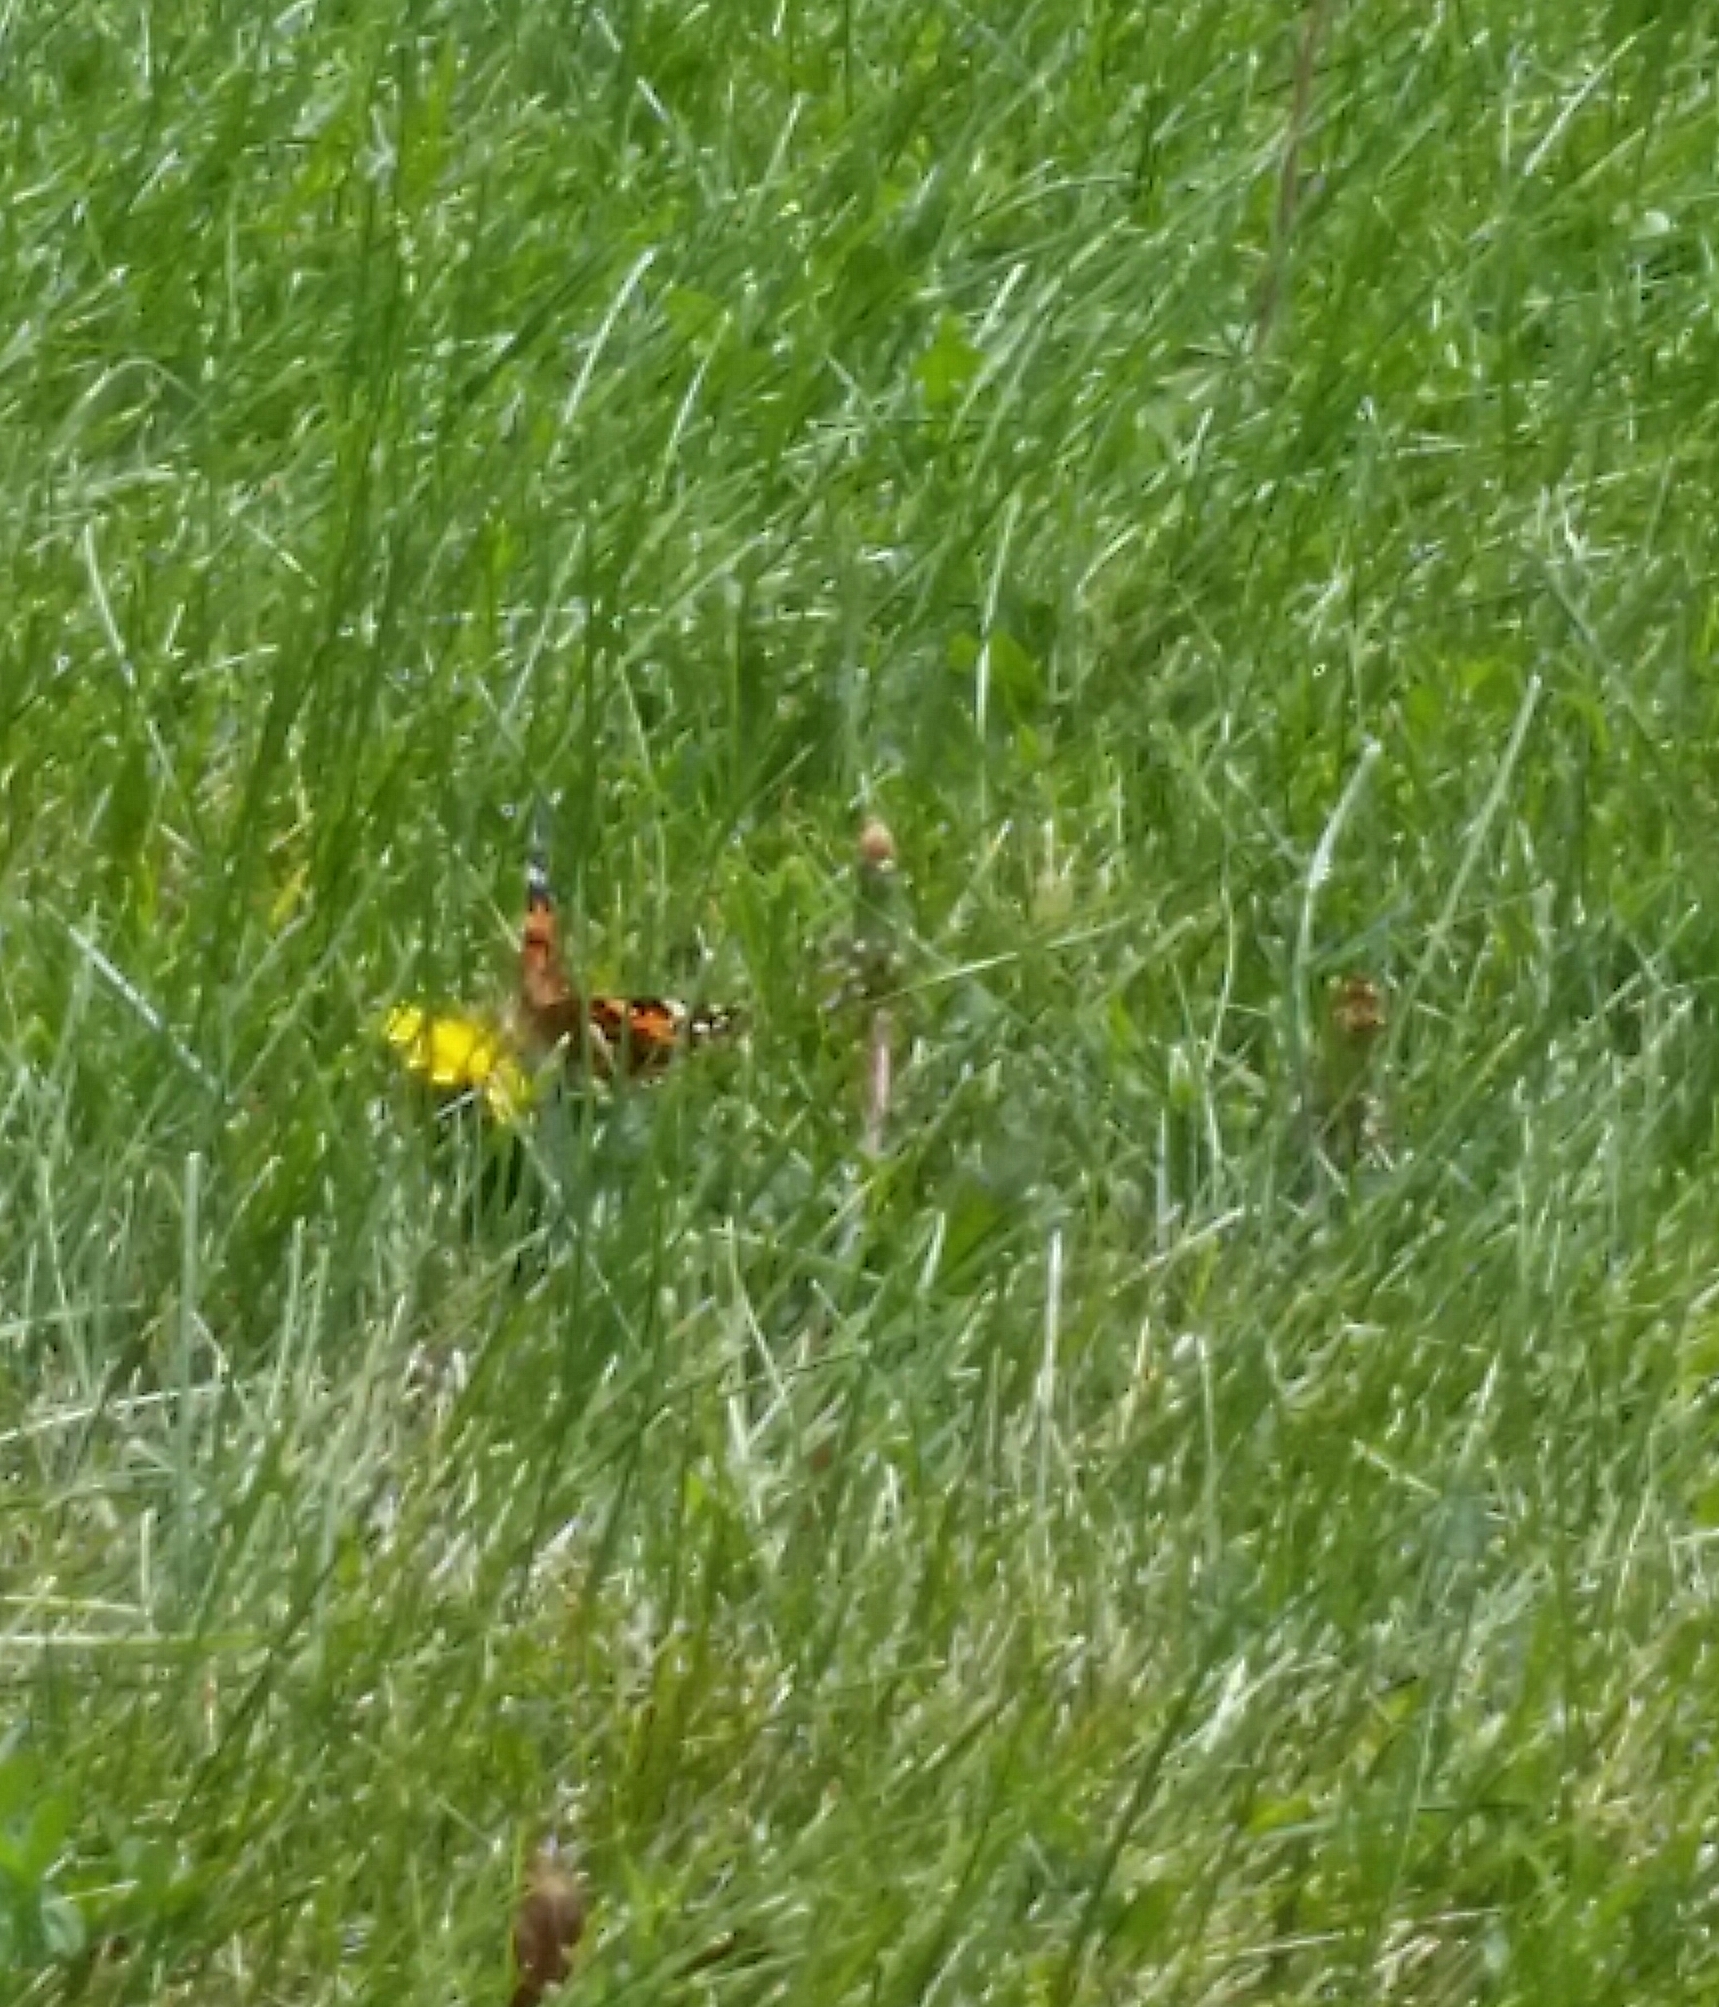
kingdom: Animalia
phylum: Arthropoda
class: Insecta
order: Lepidoptera
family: Nymphalidae
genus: Vanessa
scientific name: Vanessa cardui
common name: Painted lady
